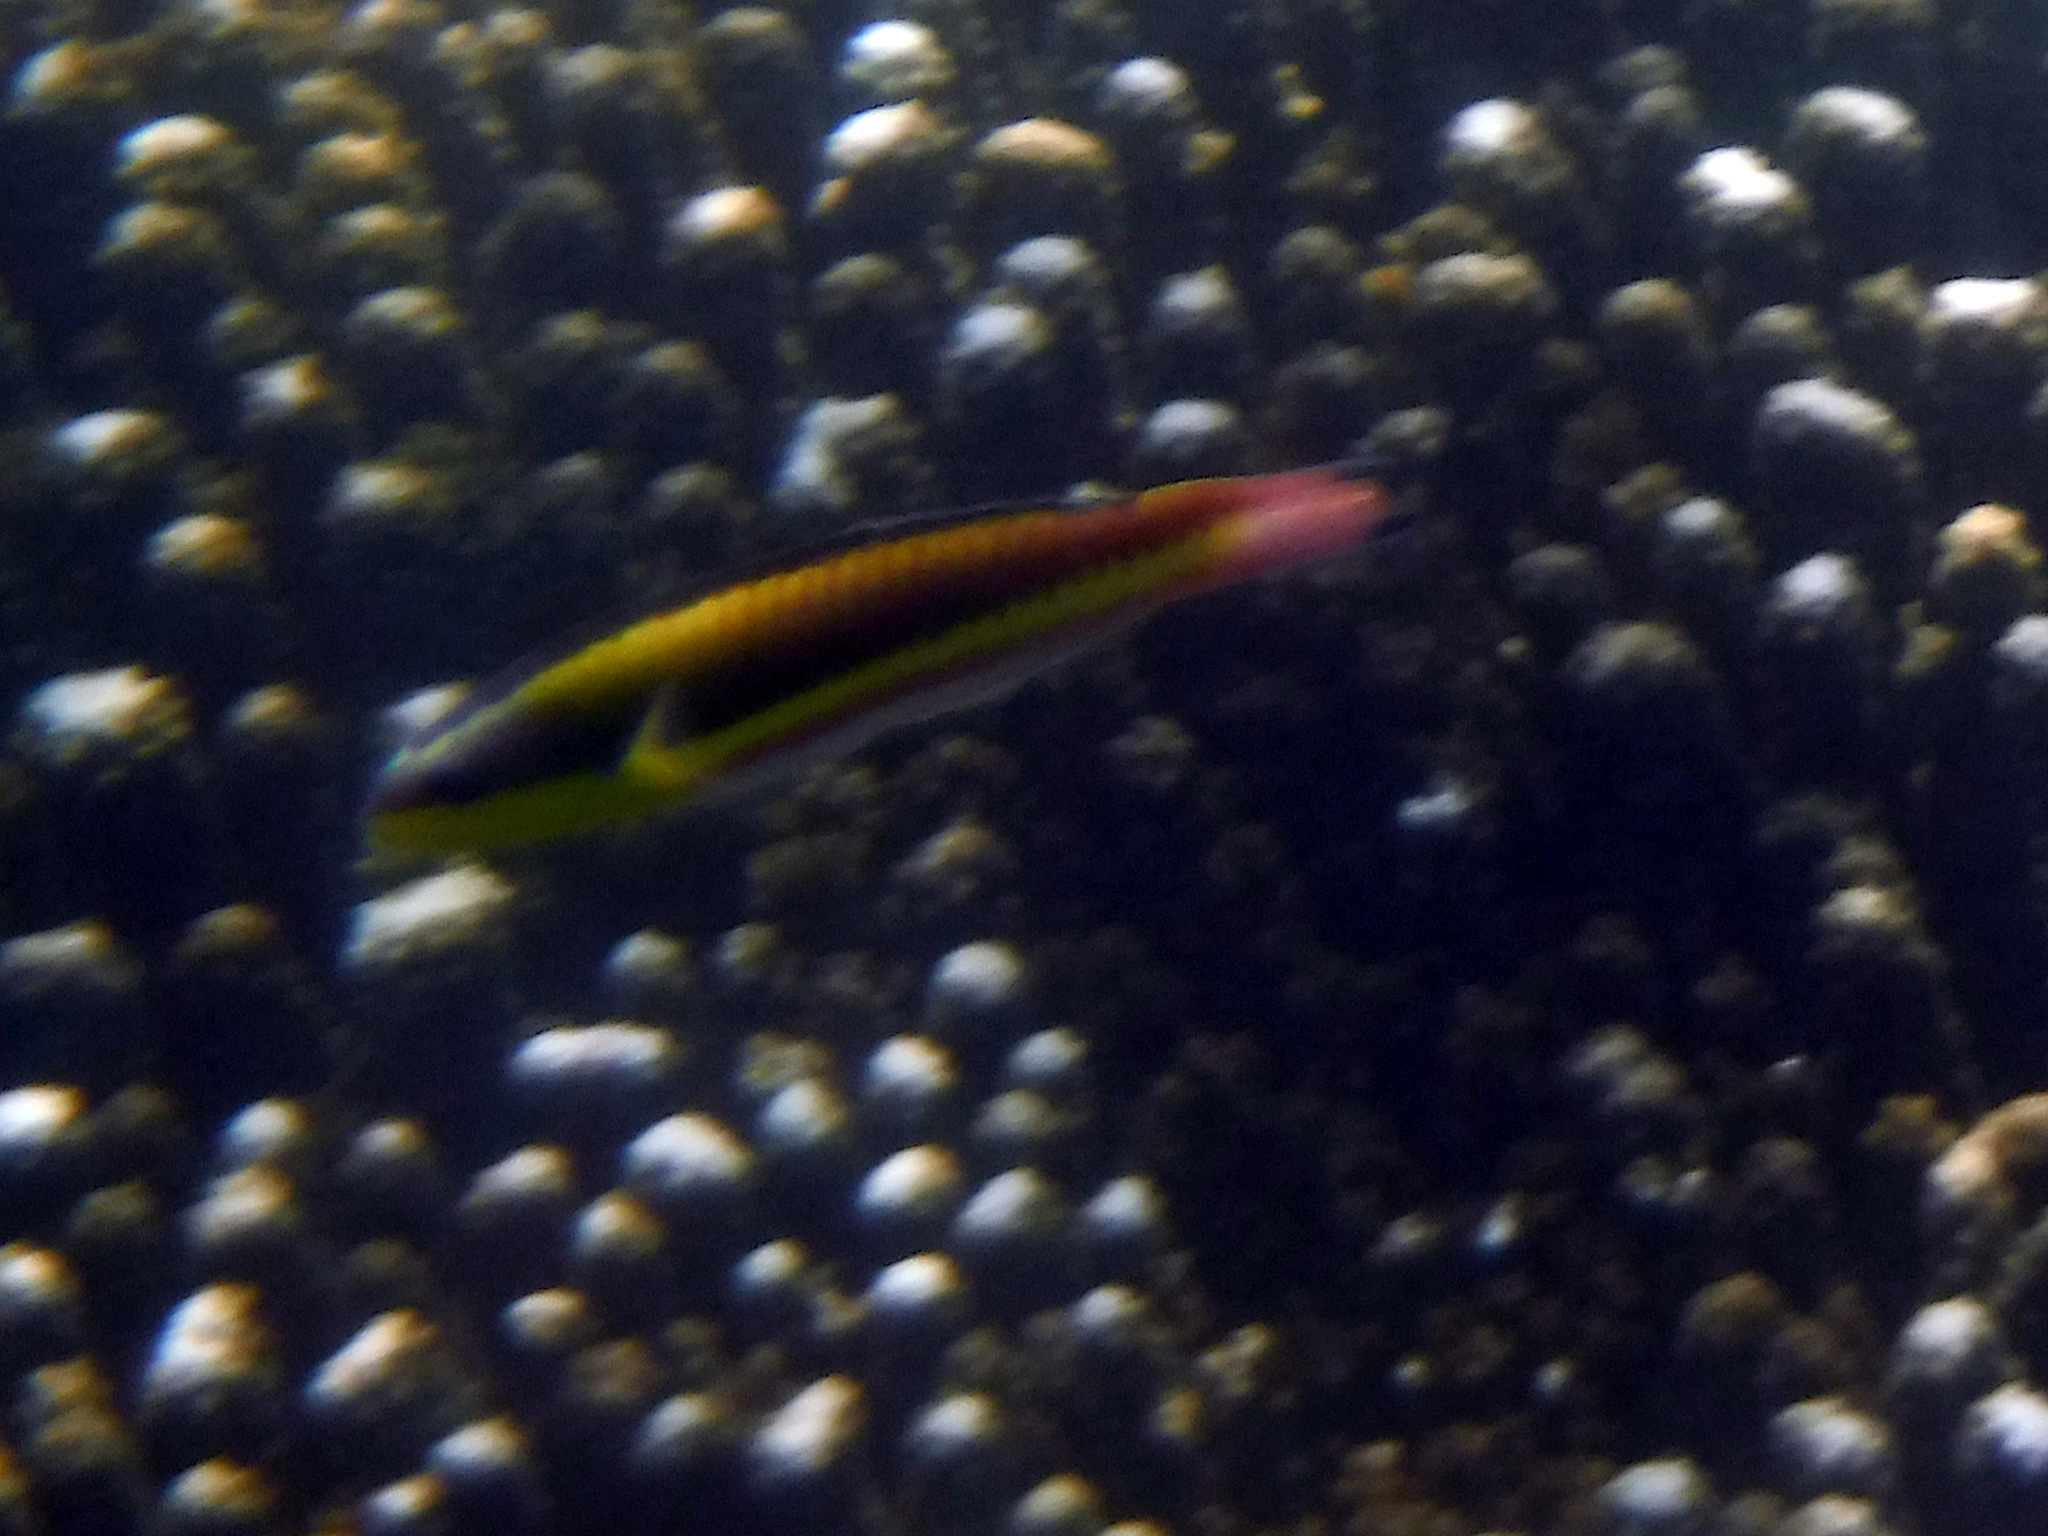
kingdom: Animalia
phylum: Chordata
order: Perciformes
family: Labridae
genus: Thalassoma
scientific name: Thalassoma lucasanum
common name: Cortez rainbow wrasse
